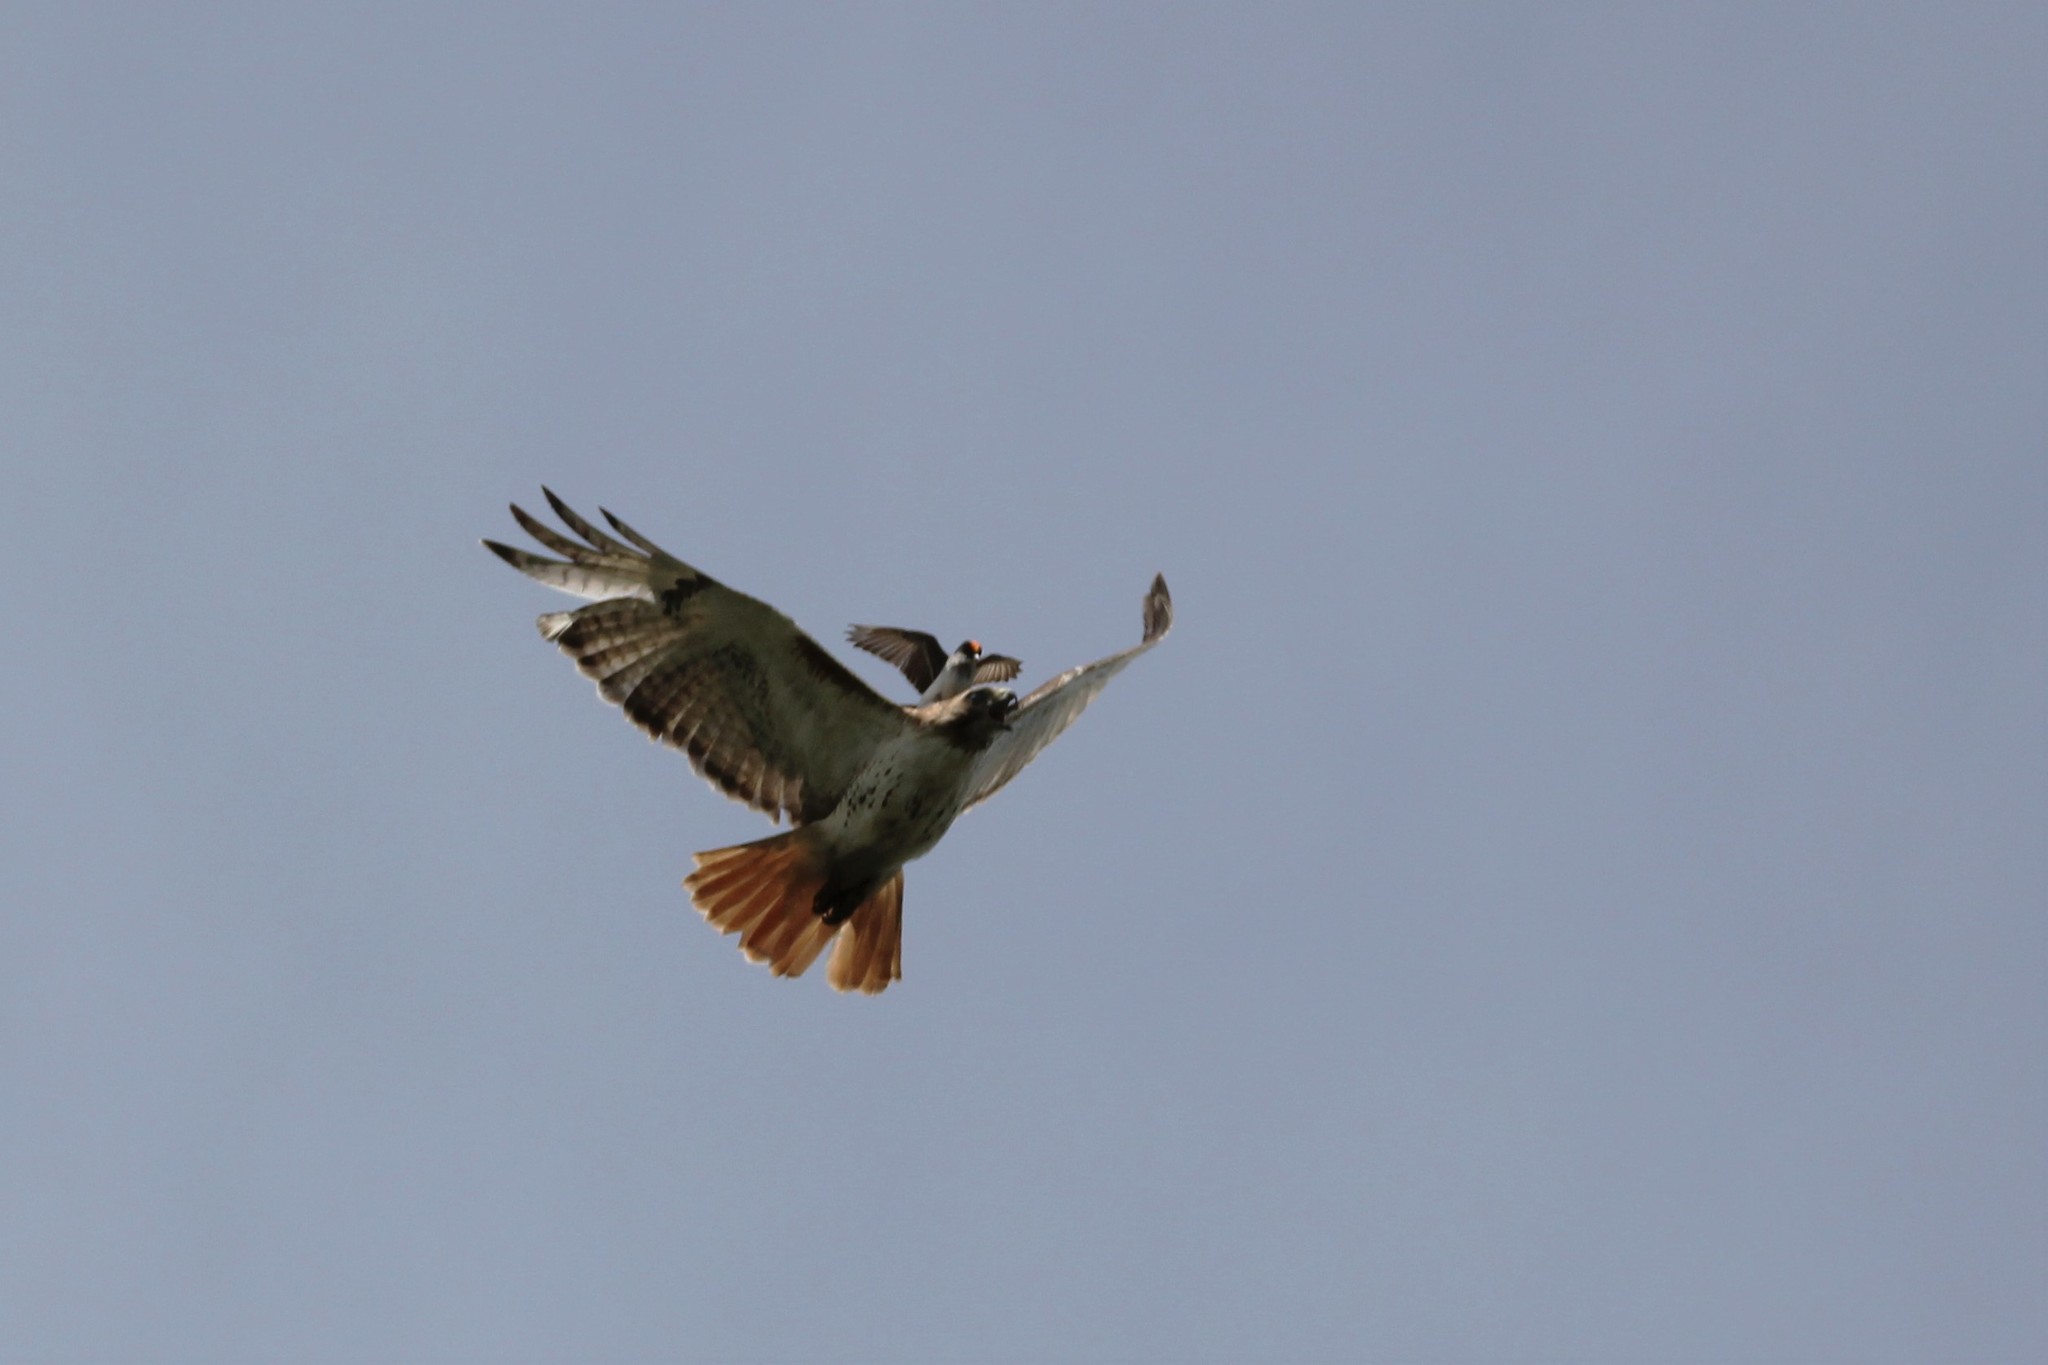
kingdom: Animalia
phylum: Chordata
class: Aves
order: Accipitriformes
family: Accipitridae
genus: Buteo
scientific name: Buteo jamaicensis
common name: Red-tailed hawk
